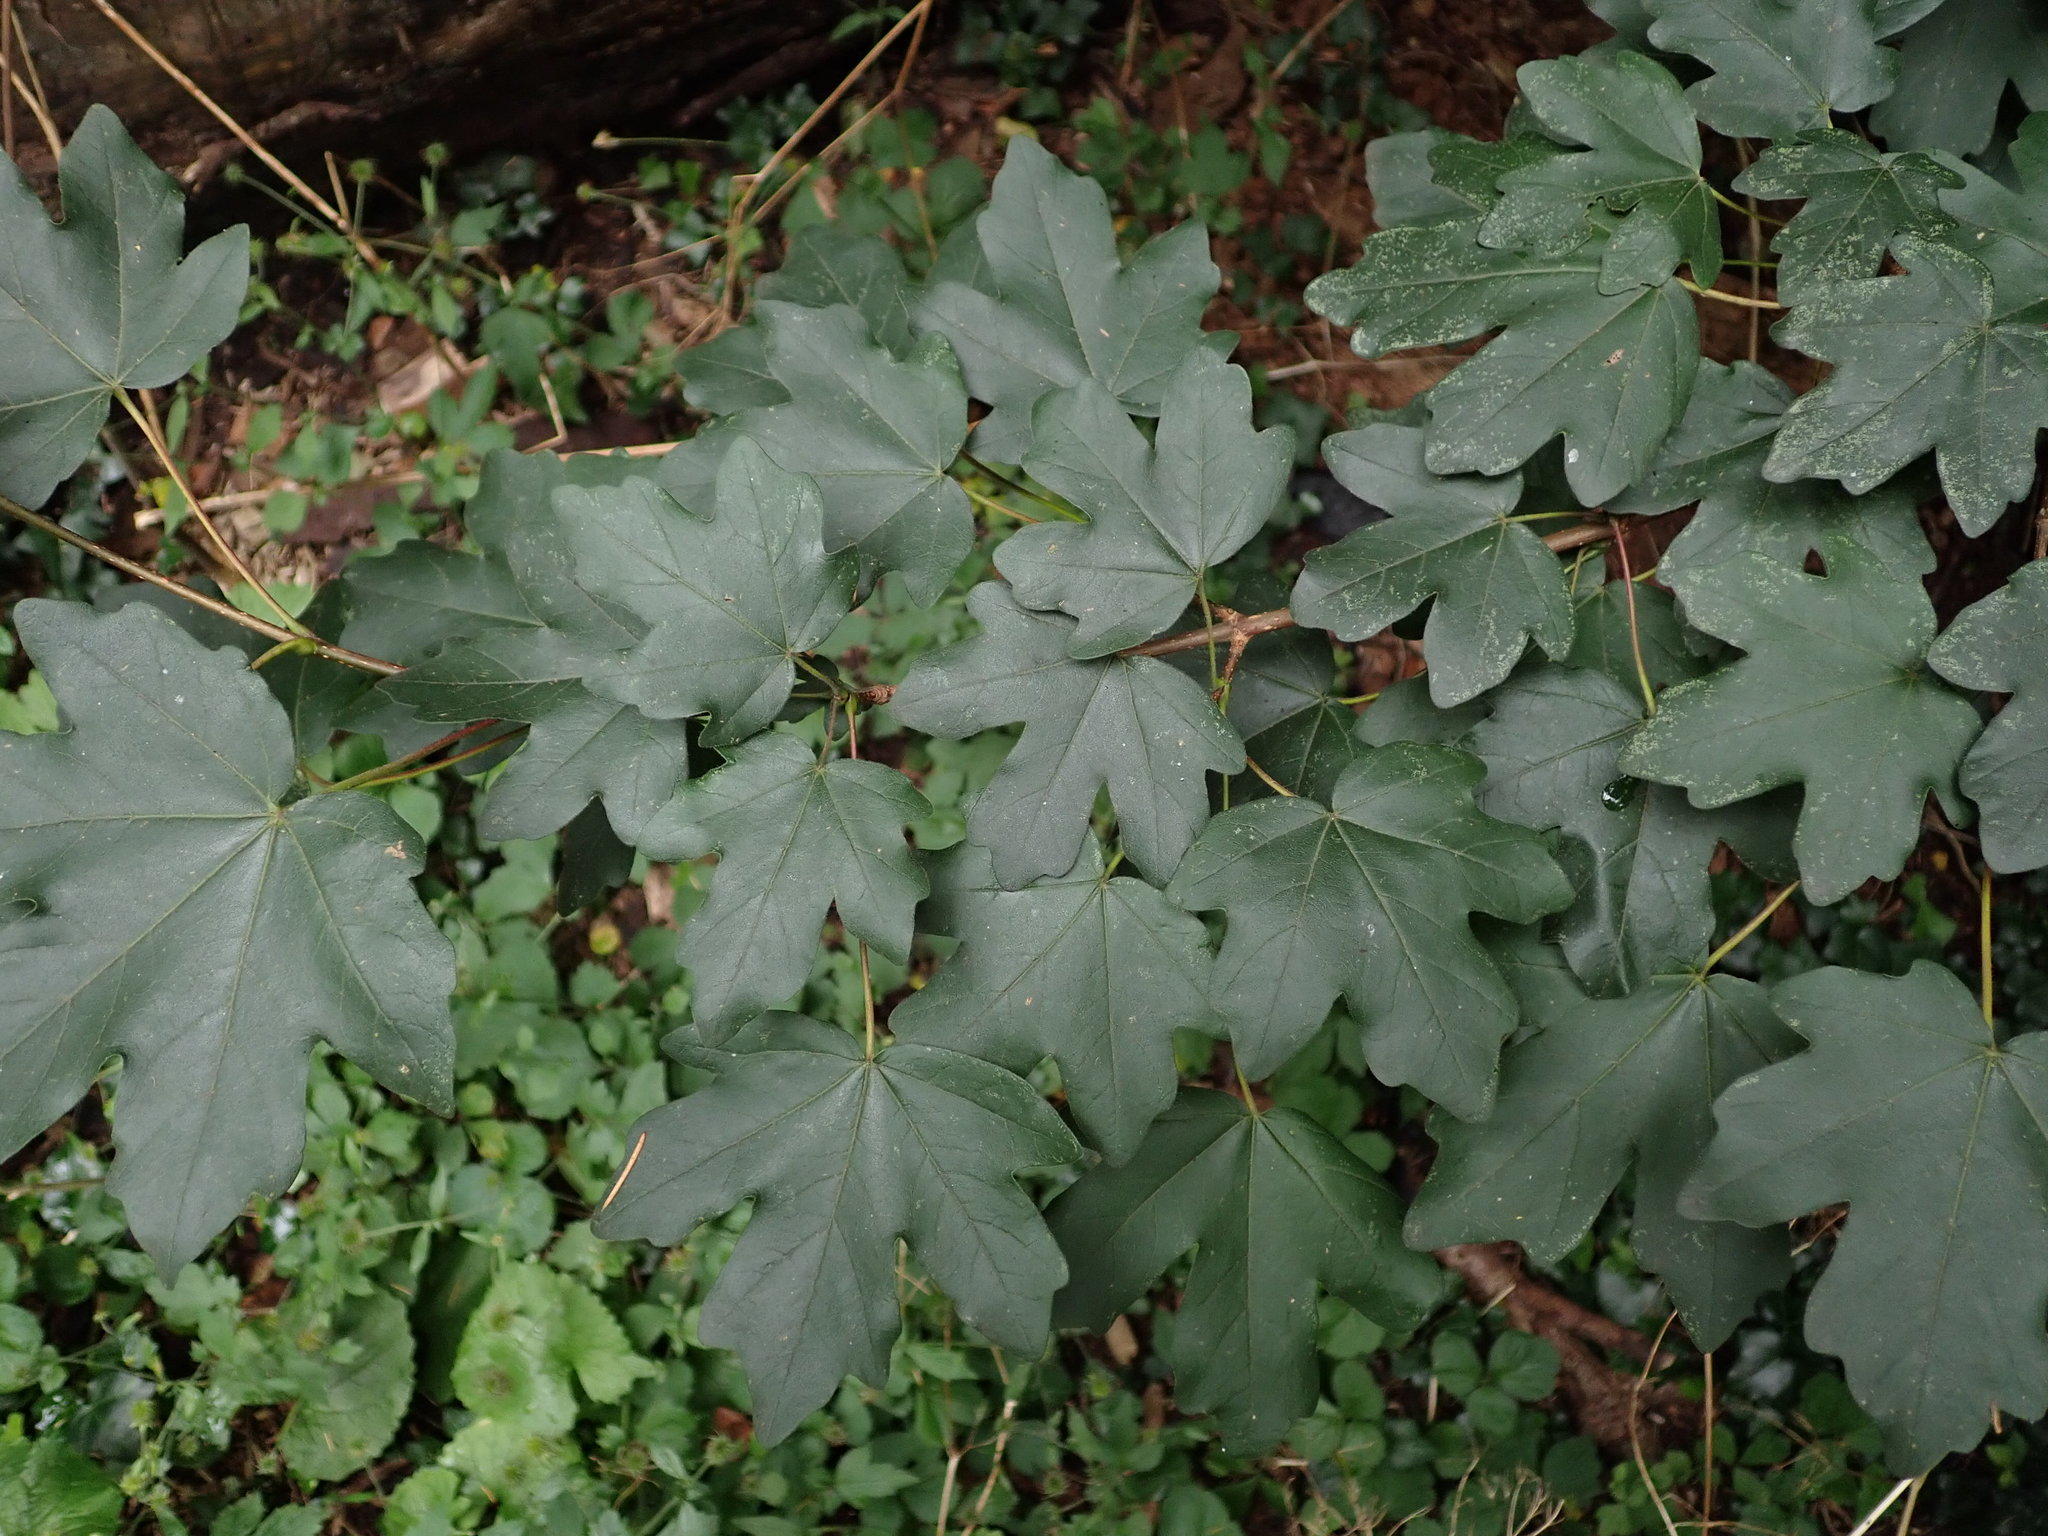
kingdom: Plantae
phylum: Tracheophyta
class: Magnoliopsida
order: Sapindales
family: Sapindaceae
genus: Acer
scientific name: Acer campestre
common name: Field maple
